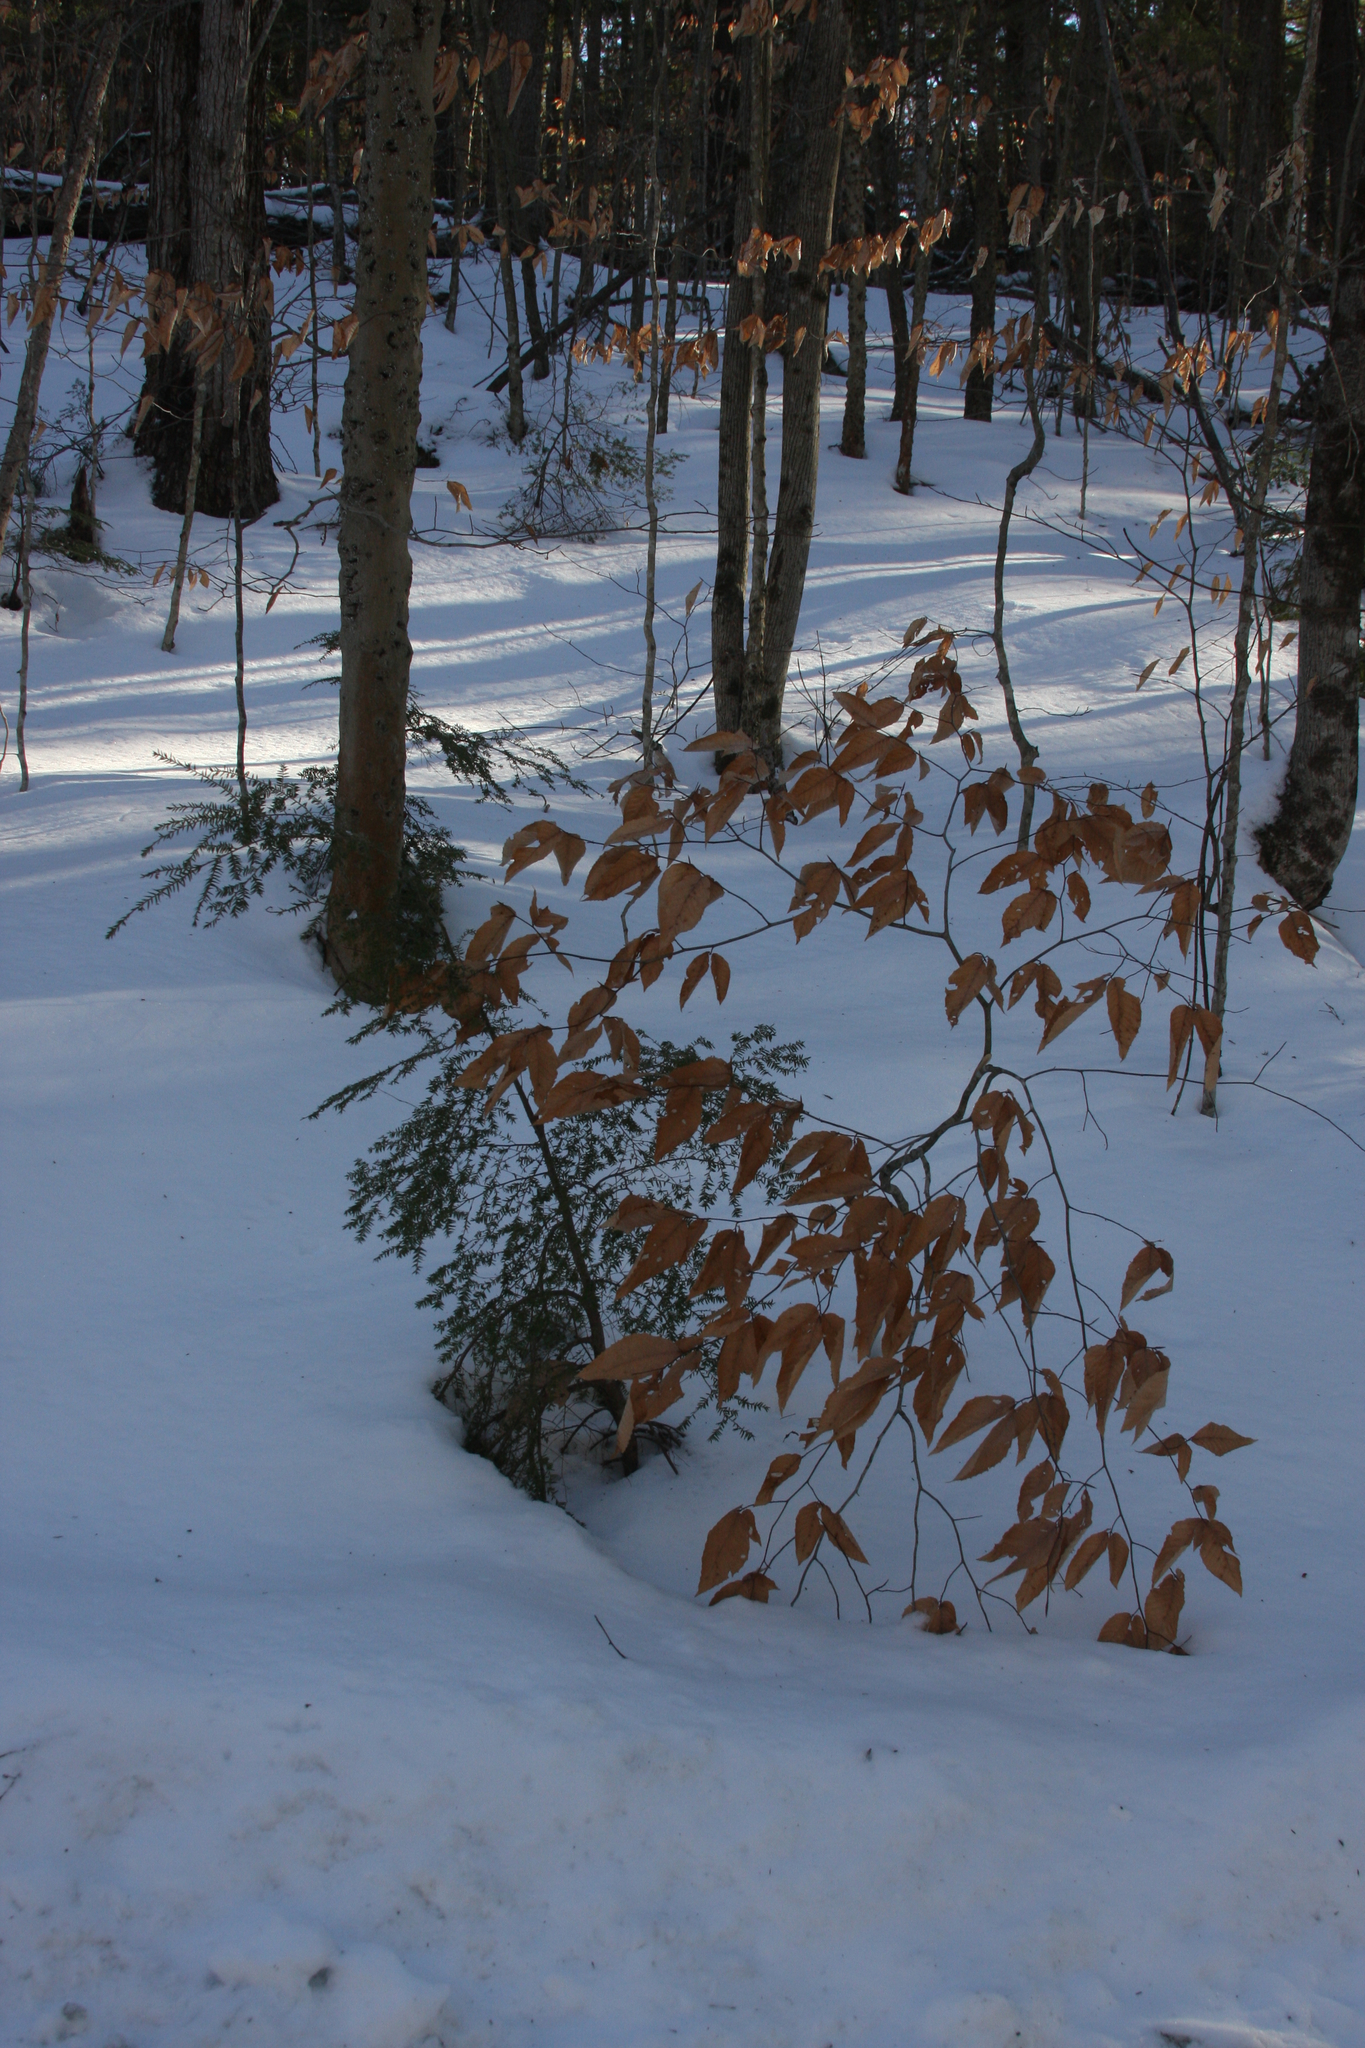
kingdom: Plantae
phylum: Tracheophyta
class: Magnoliopsida
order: Fagales
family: Fagaceae
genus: Fagus
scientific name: Fagus grandifolia
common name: American beech
